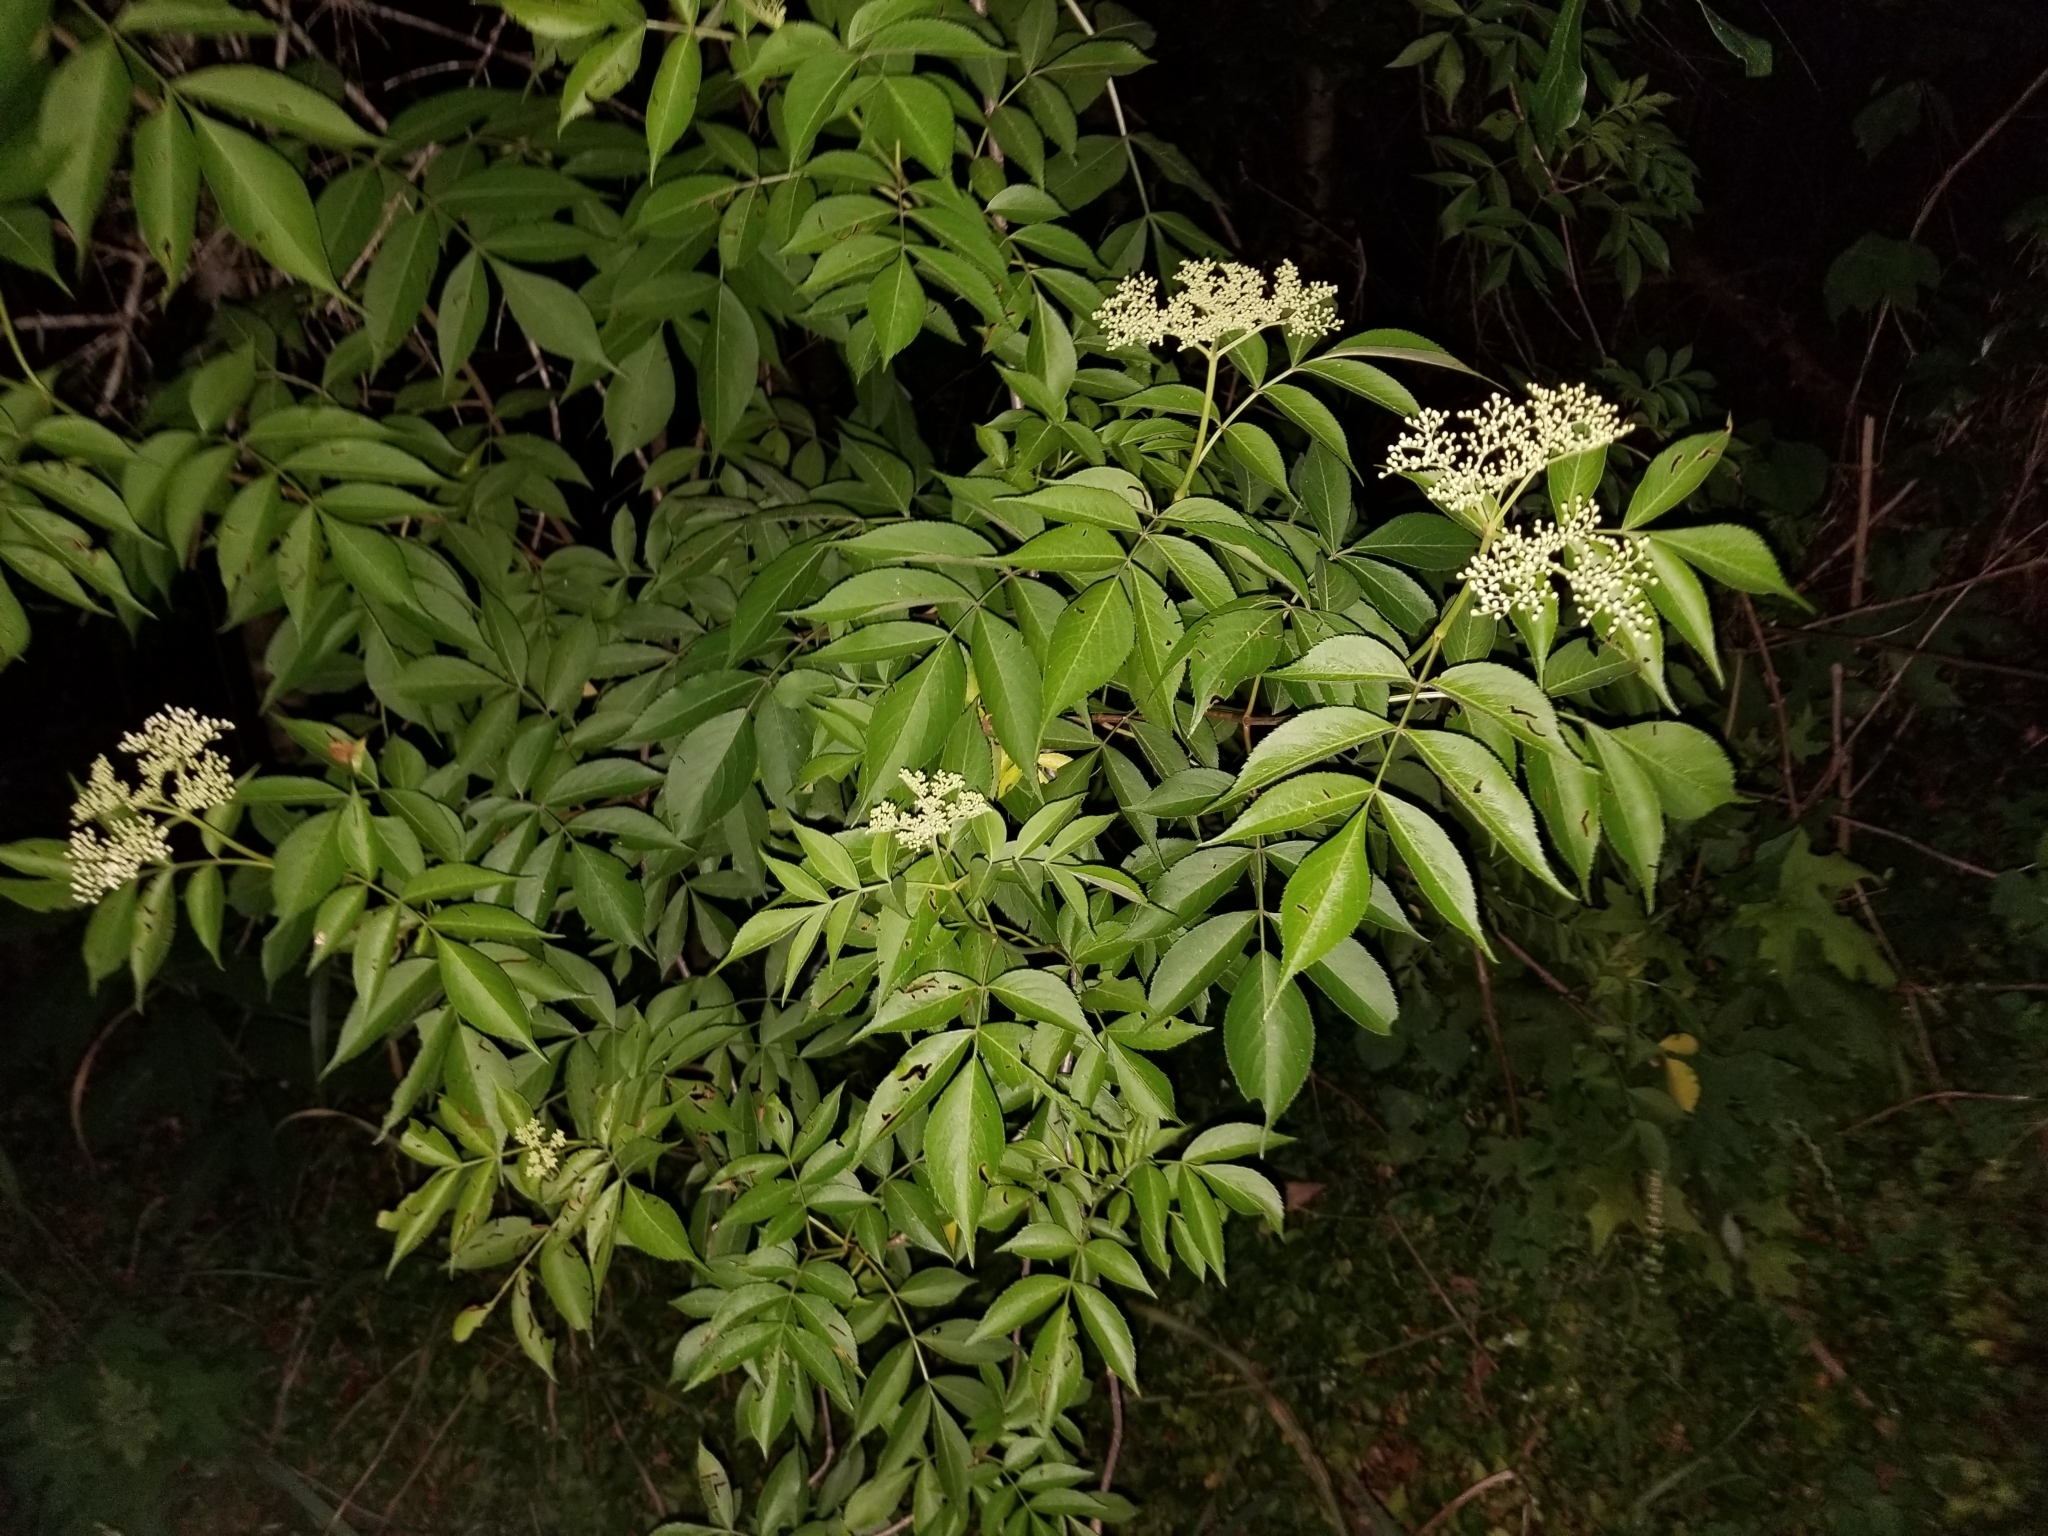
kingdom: Plantae
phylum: Tracheophyta
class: Magnoliopsida
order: Dipsacales
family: Viburnaceae
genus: Sambucus
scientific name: Sambucus canadensis
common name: American elder
